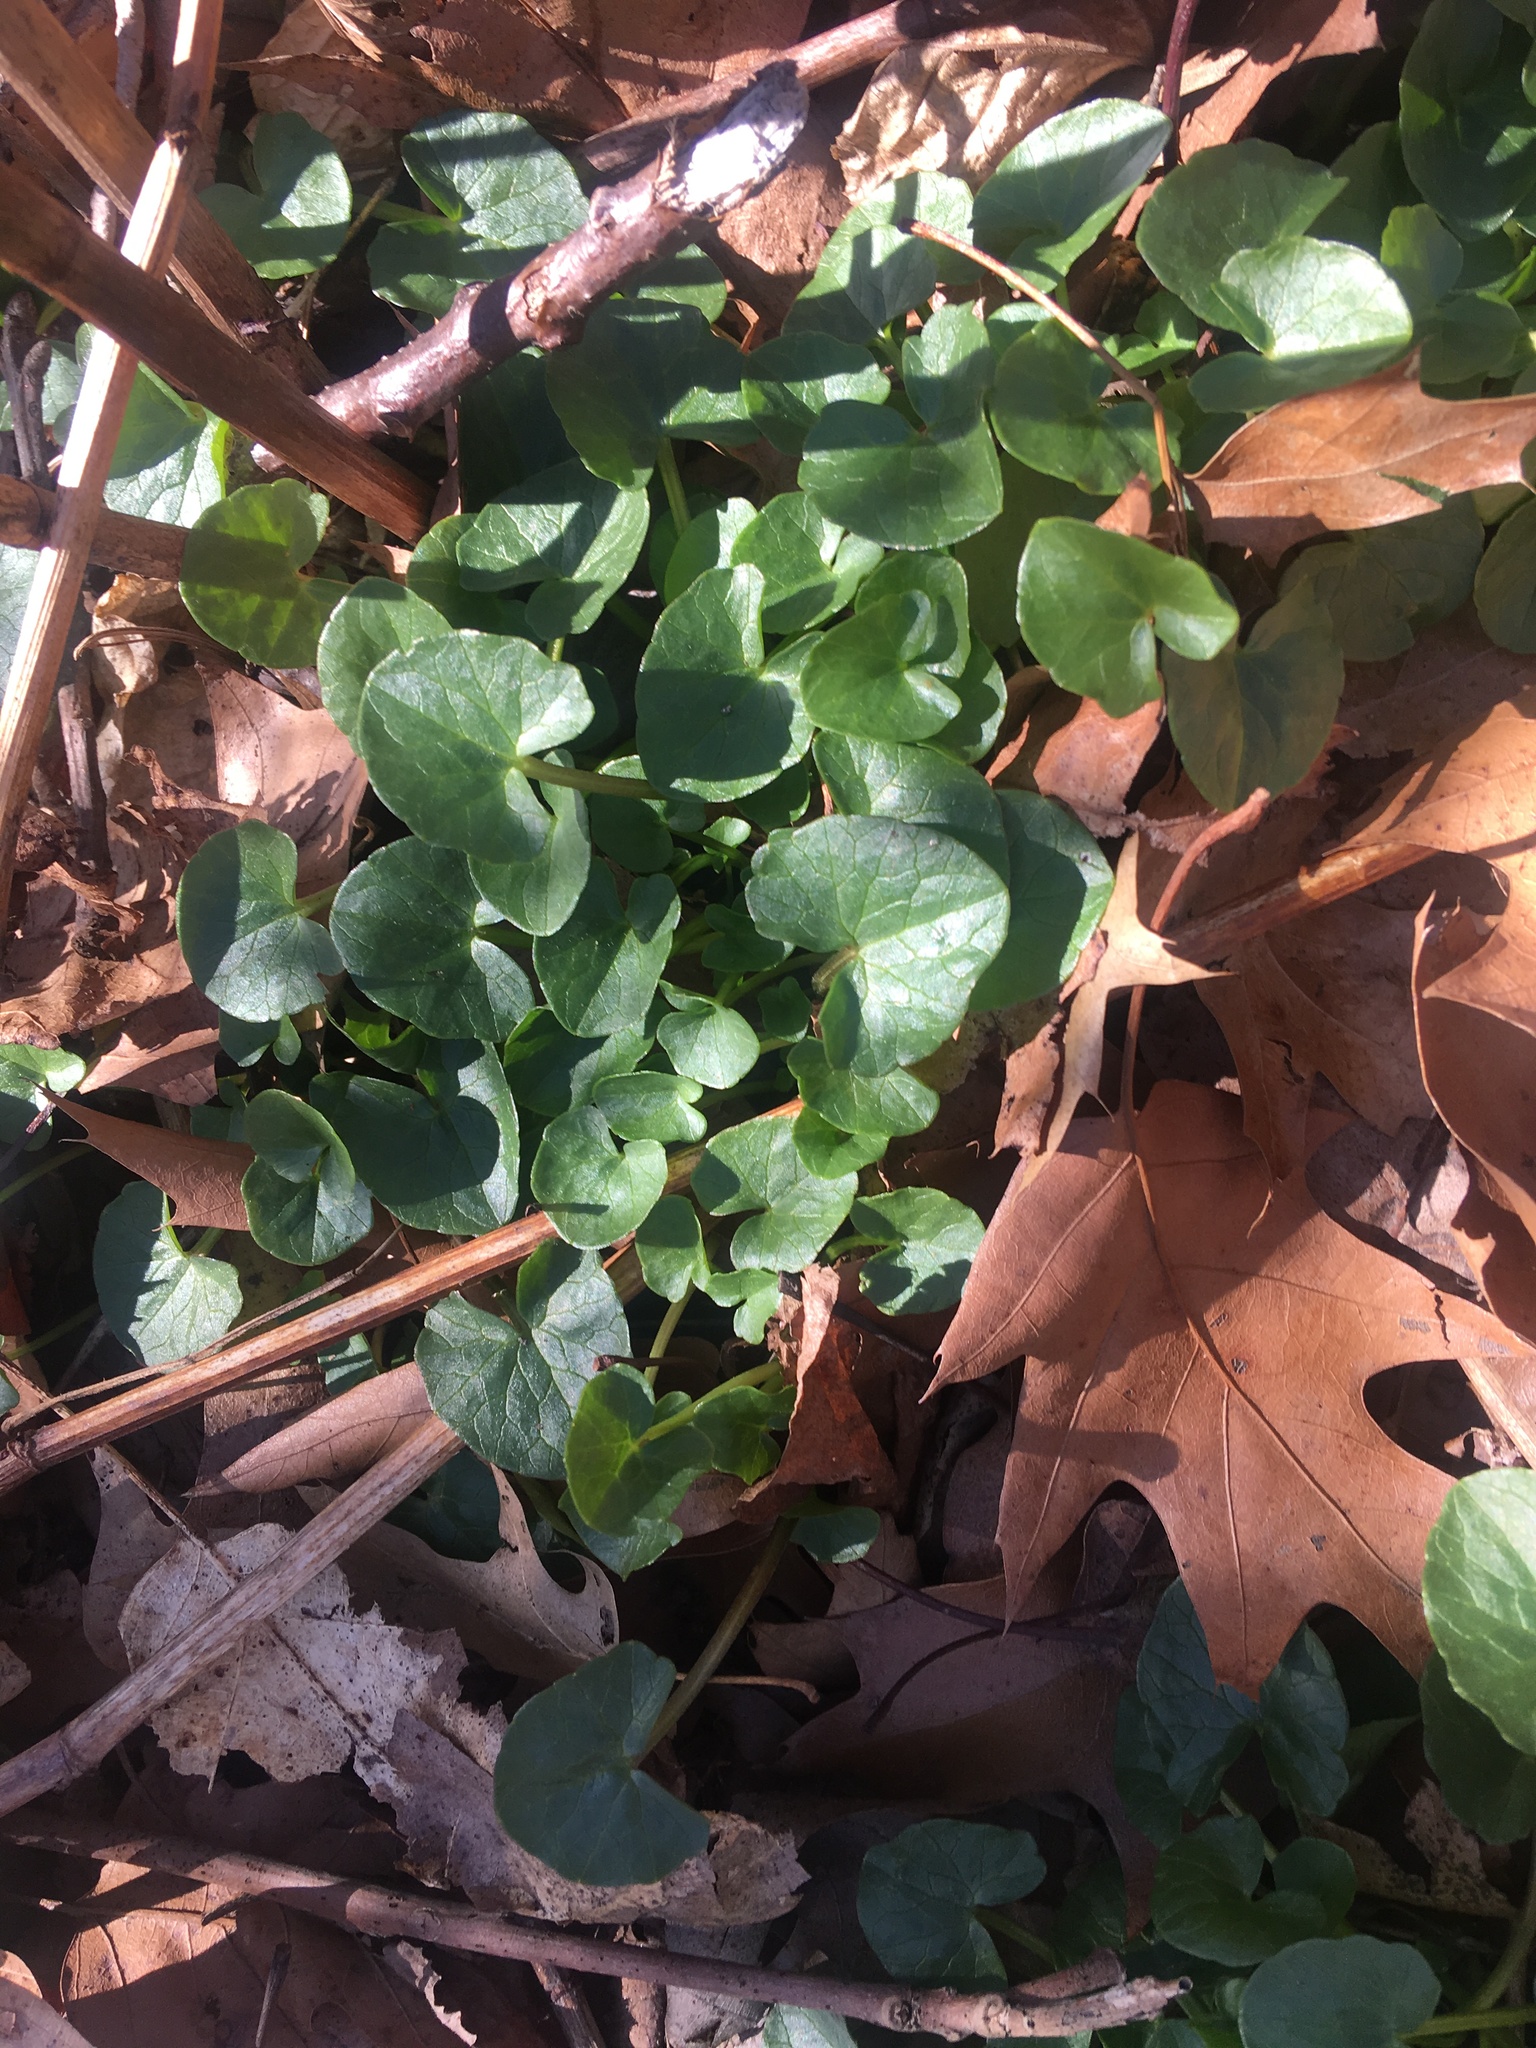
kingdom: Plantae
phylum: Tracheophyta
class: Magnoliopsida
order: Ranunculales
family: Ranunculaceae
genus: Ficaria
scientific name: Ficaria verna
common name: Lesser celandine
